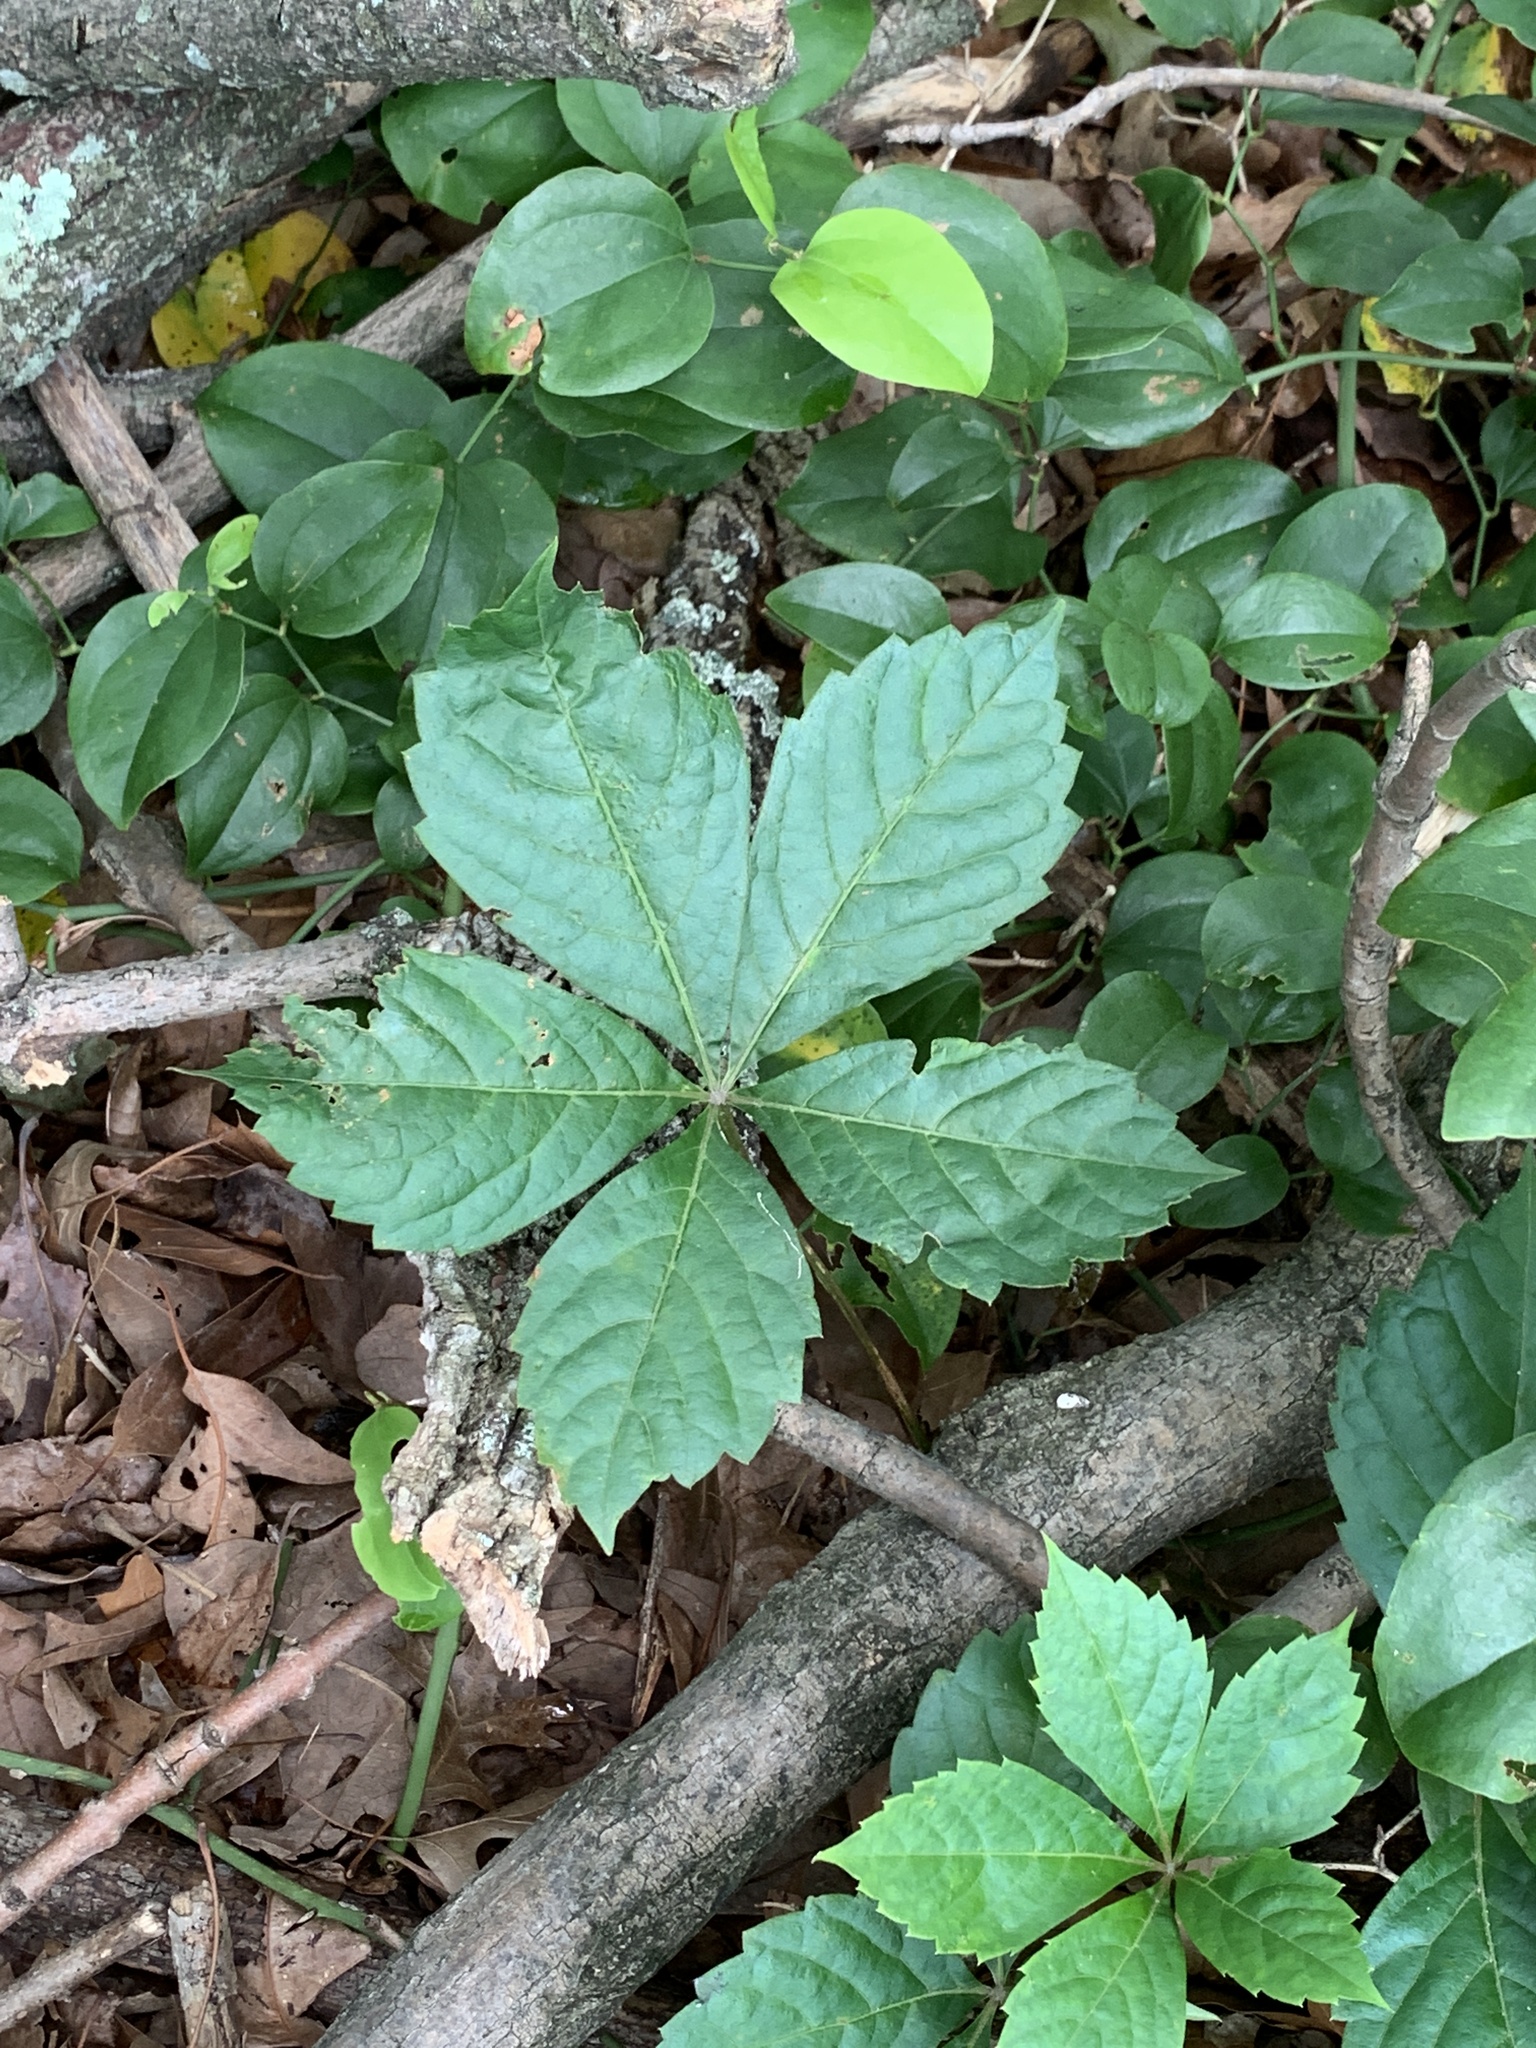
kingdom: Plantae
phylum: Tracheophyta
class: Magnoliopsida
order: Vitales
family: Vitaceae
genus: Parthenocissus
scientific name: Parthenocissus quinquefolia
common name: Virginia-creeper
